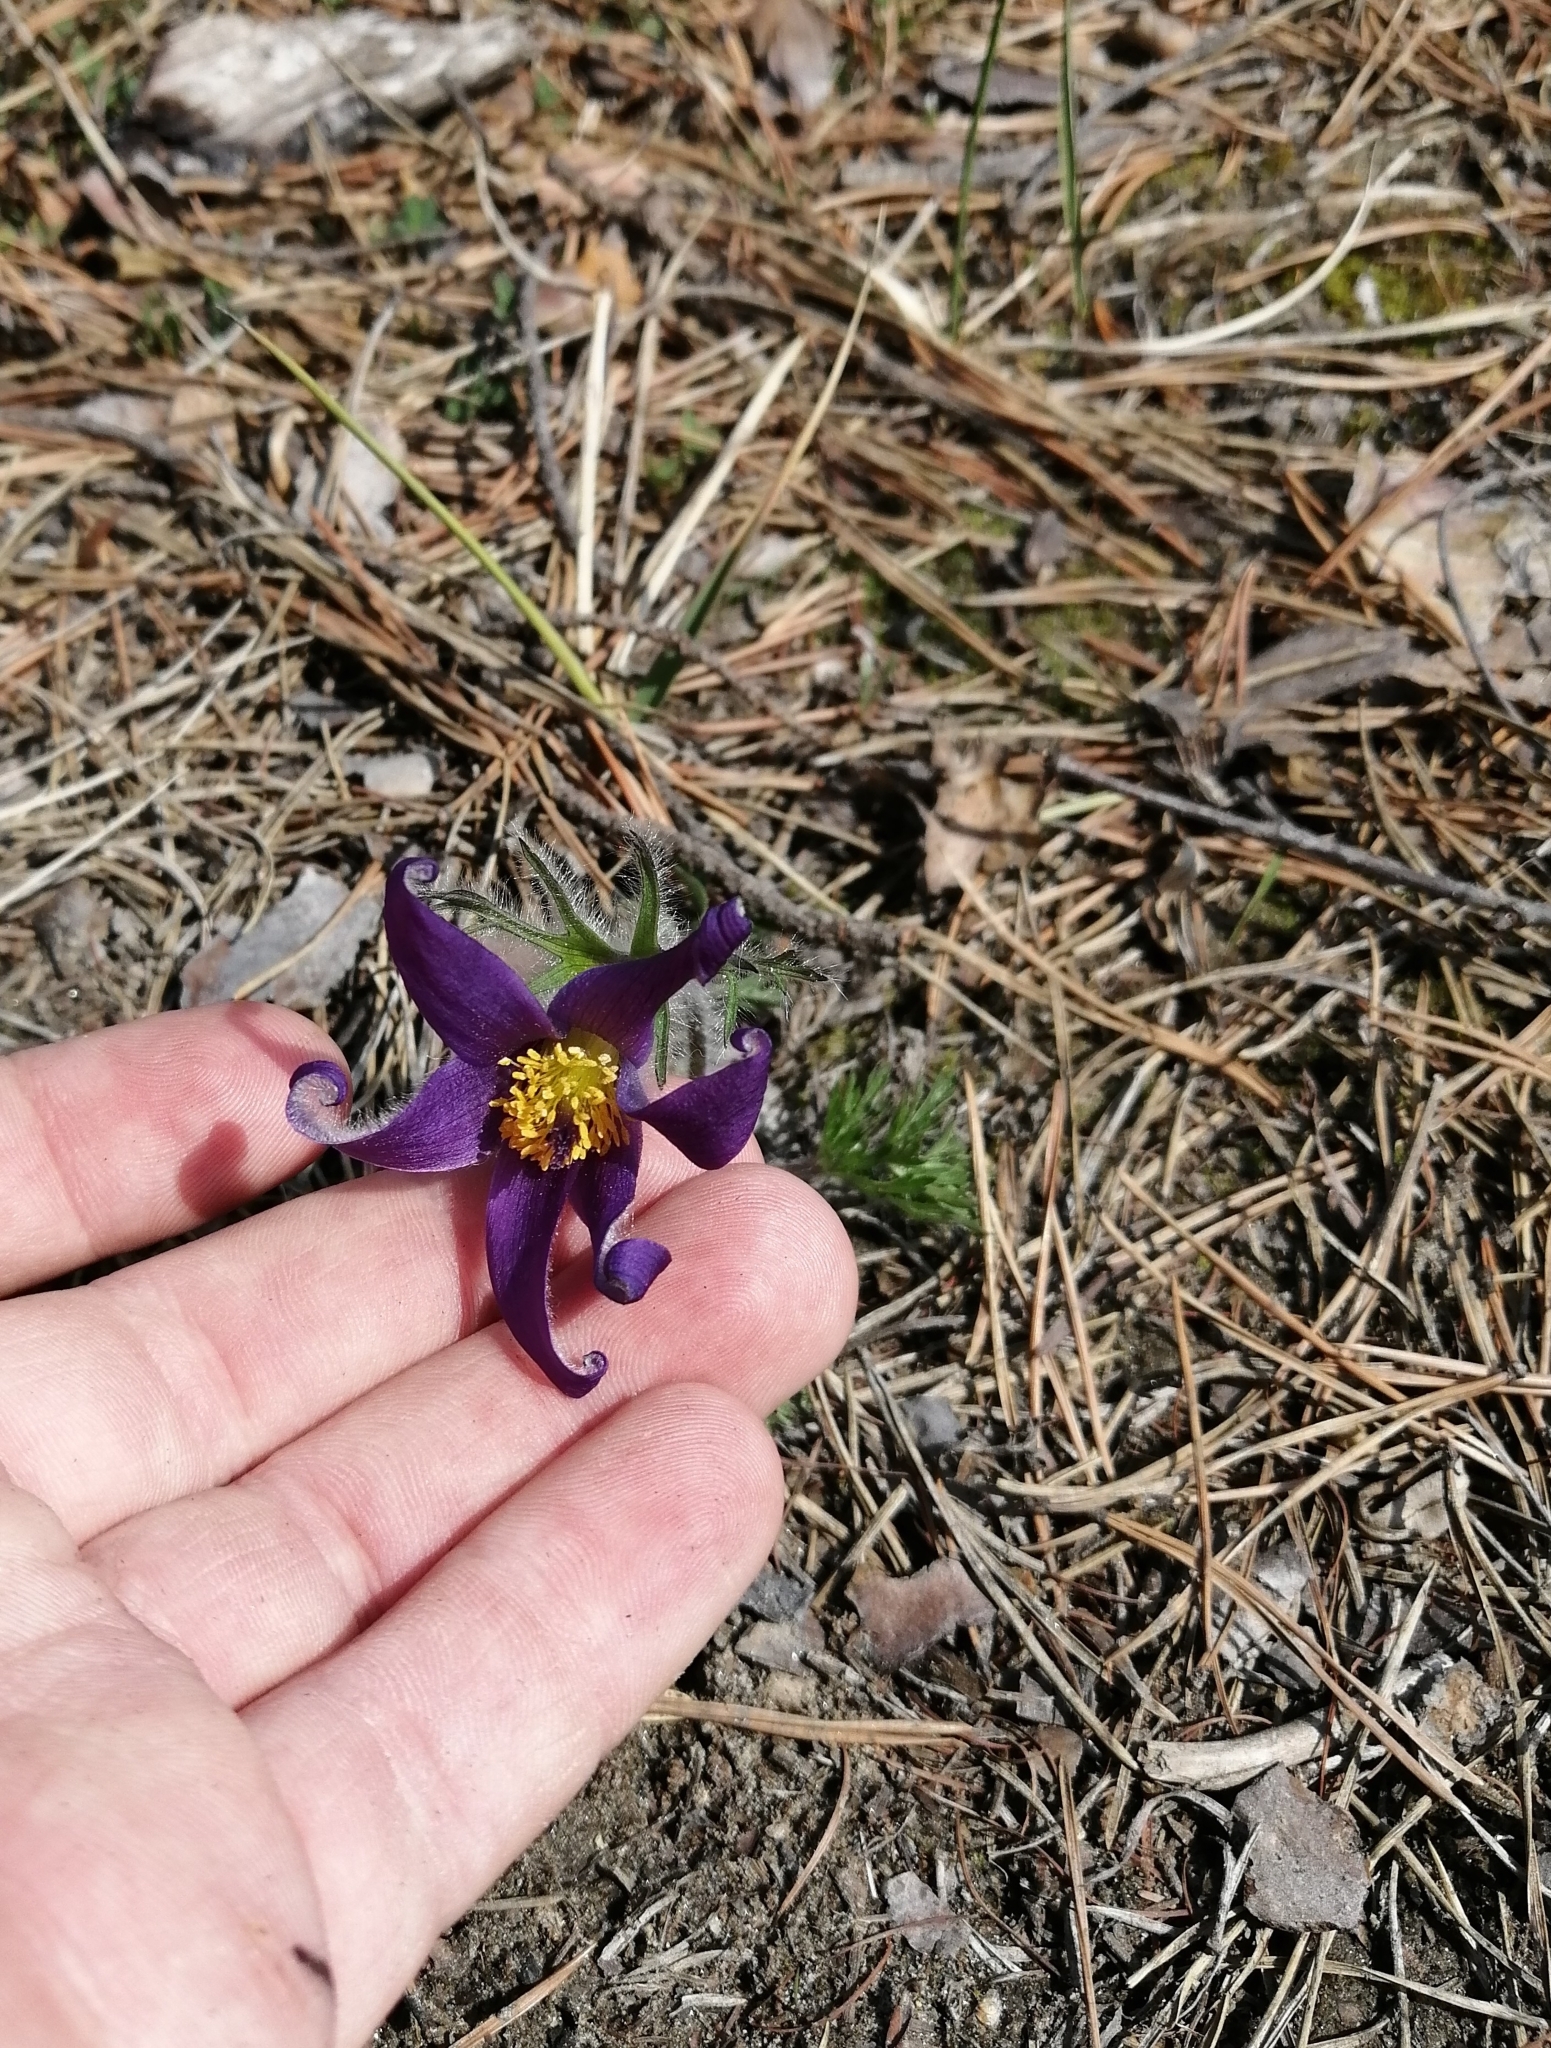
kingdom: Plantae
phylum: Tracheophyta
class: Magnoliopsida
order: Ranunculales
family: Ranunculaceae
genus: Pulsatilla
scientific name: Pulsatilla turczaninovii
